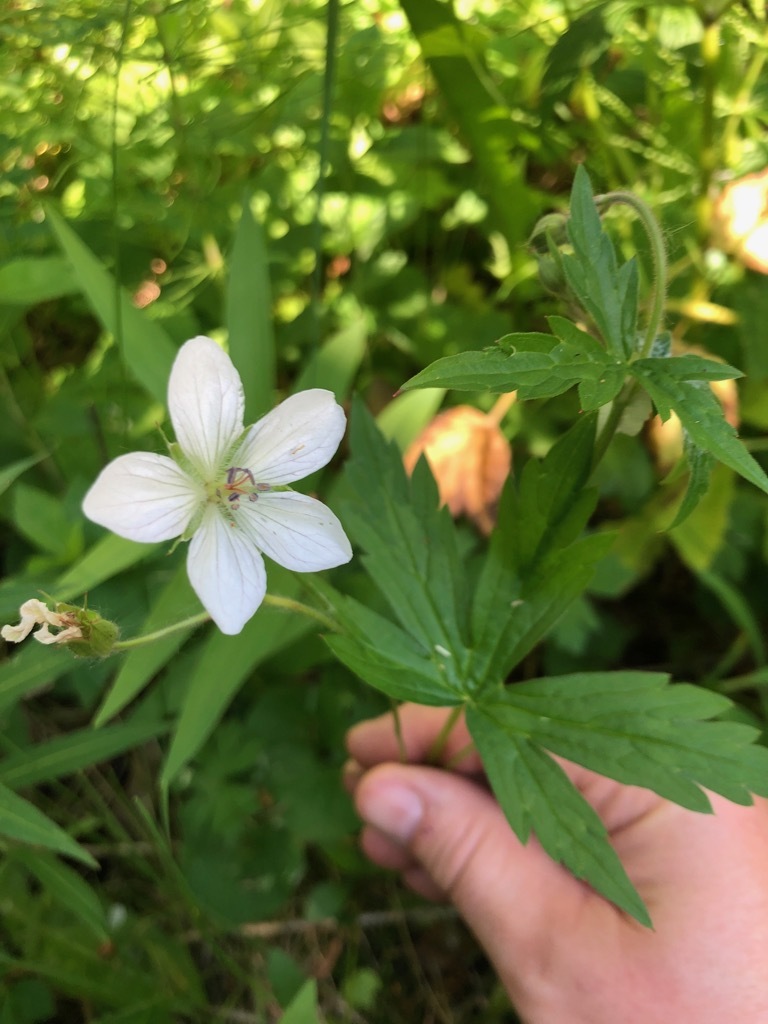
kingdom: Plantae
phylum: Tracheophyta
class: Magnoliopsida
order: Geraniales
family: Geraniaceae
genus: Geranium
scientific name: Geranium richardsonii
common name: Richardson's crane's-bill
